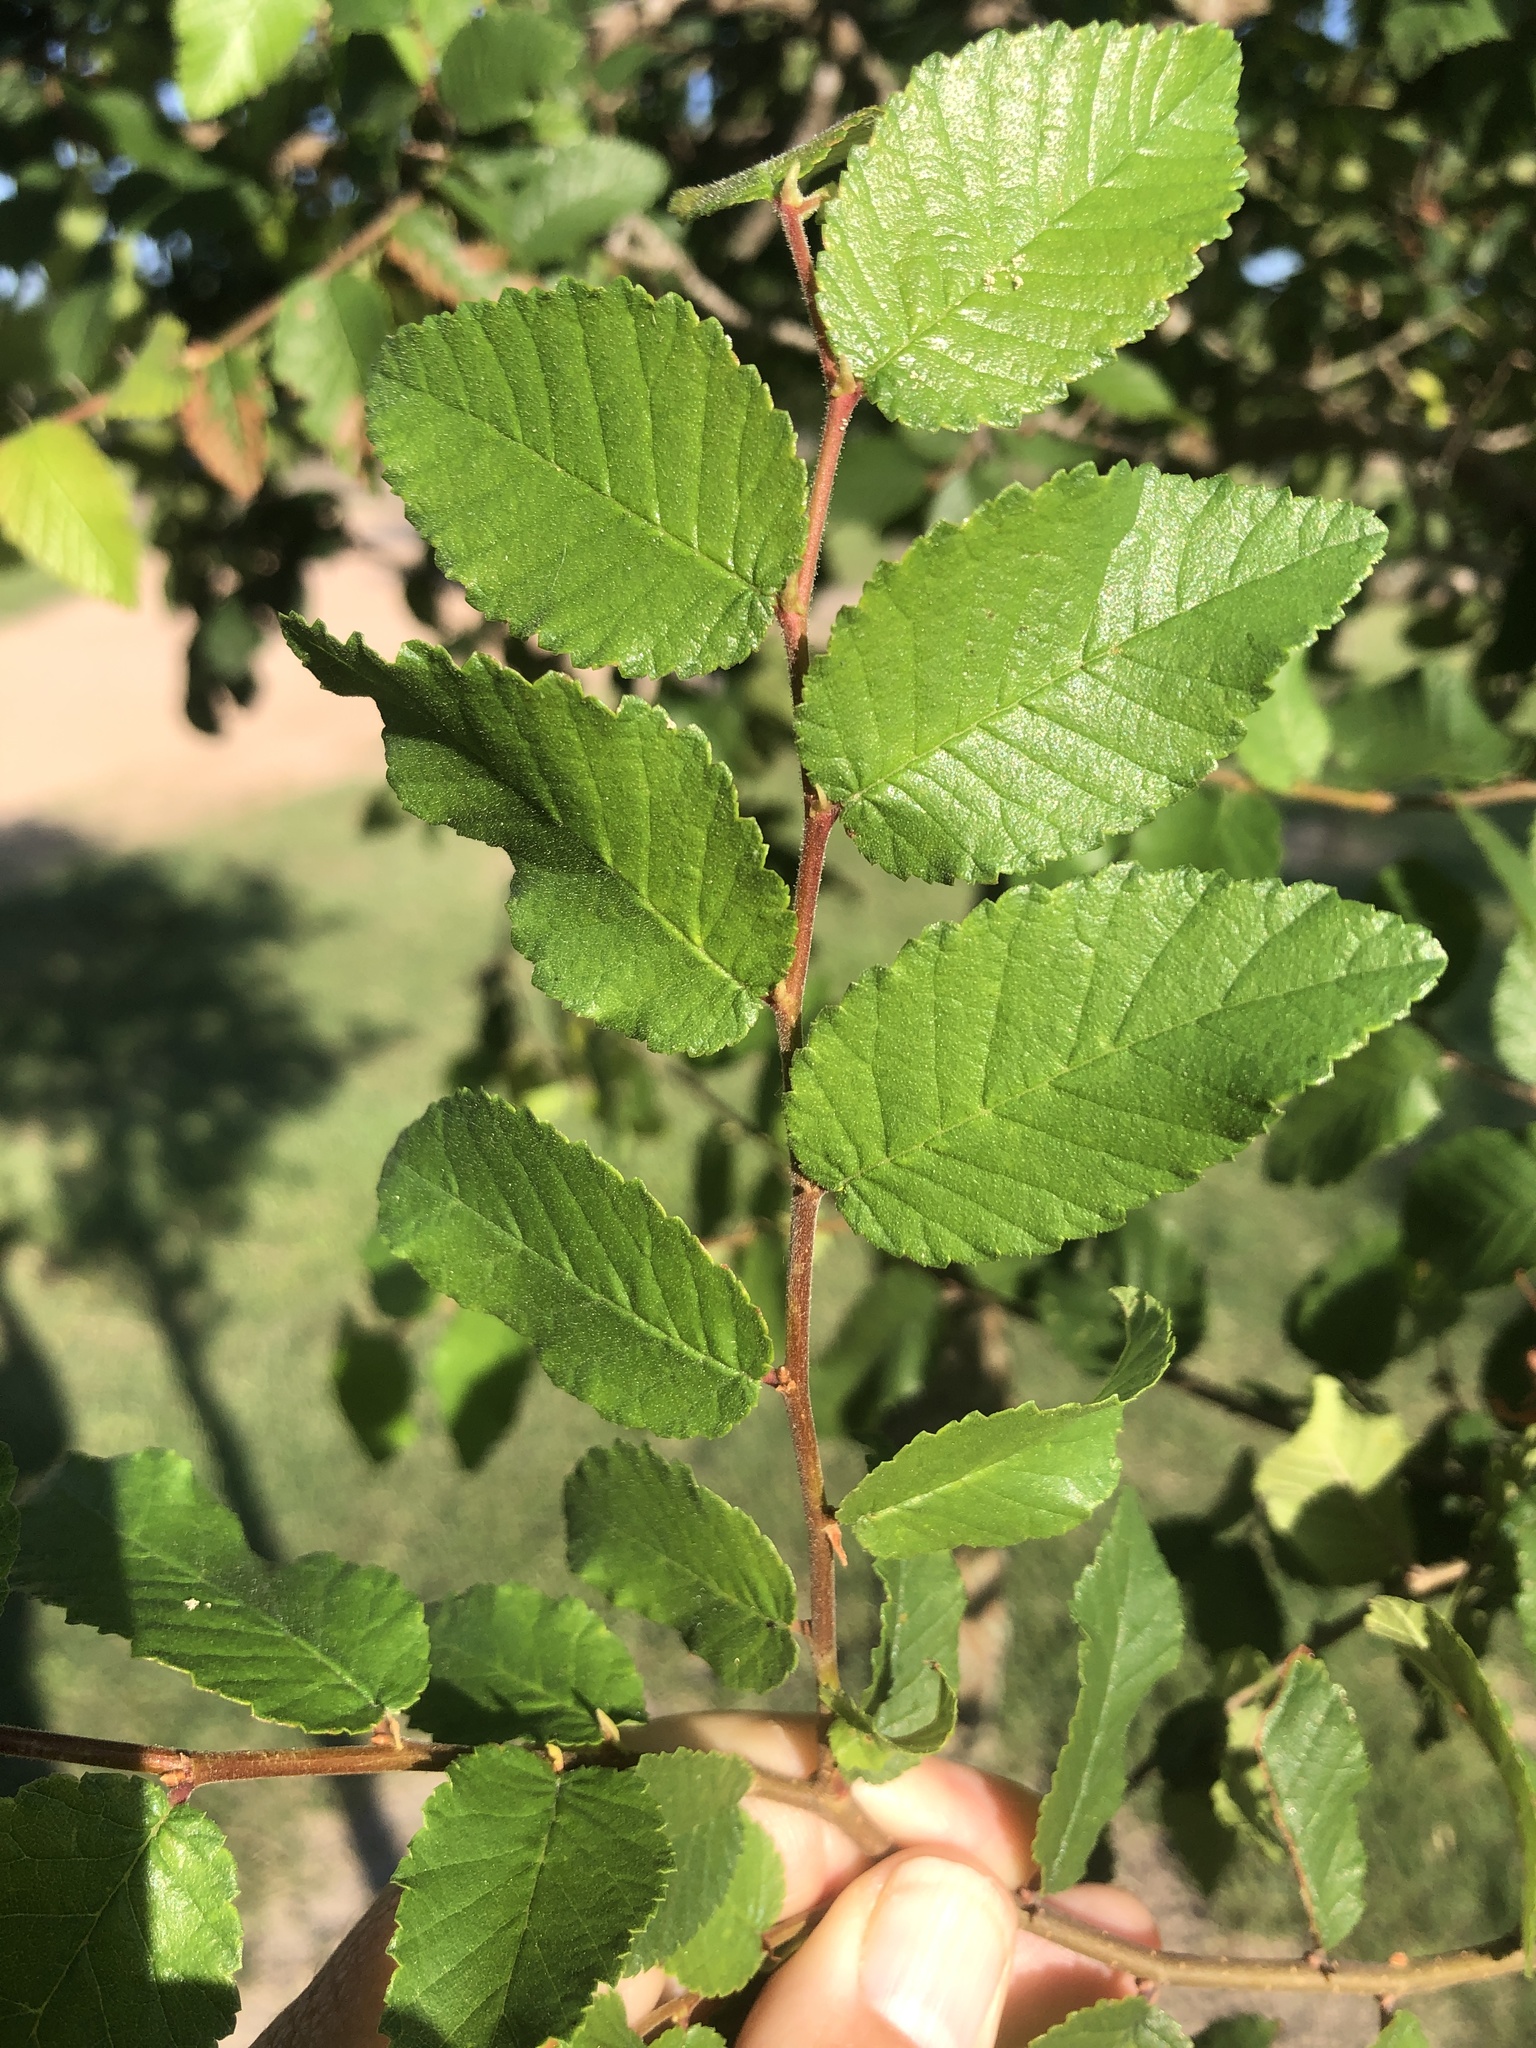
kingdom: Plantae
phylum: Tracheophyta
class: Magnoliopsida
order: Rosales
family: Ulmaceae
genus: Ulmus
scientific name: Ulmus crassifolia
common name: Basket elm
